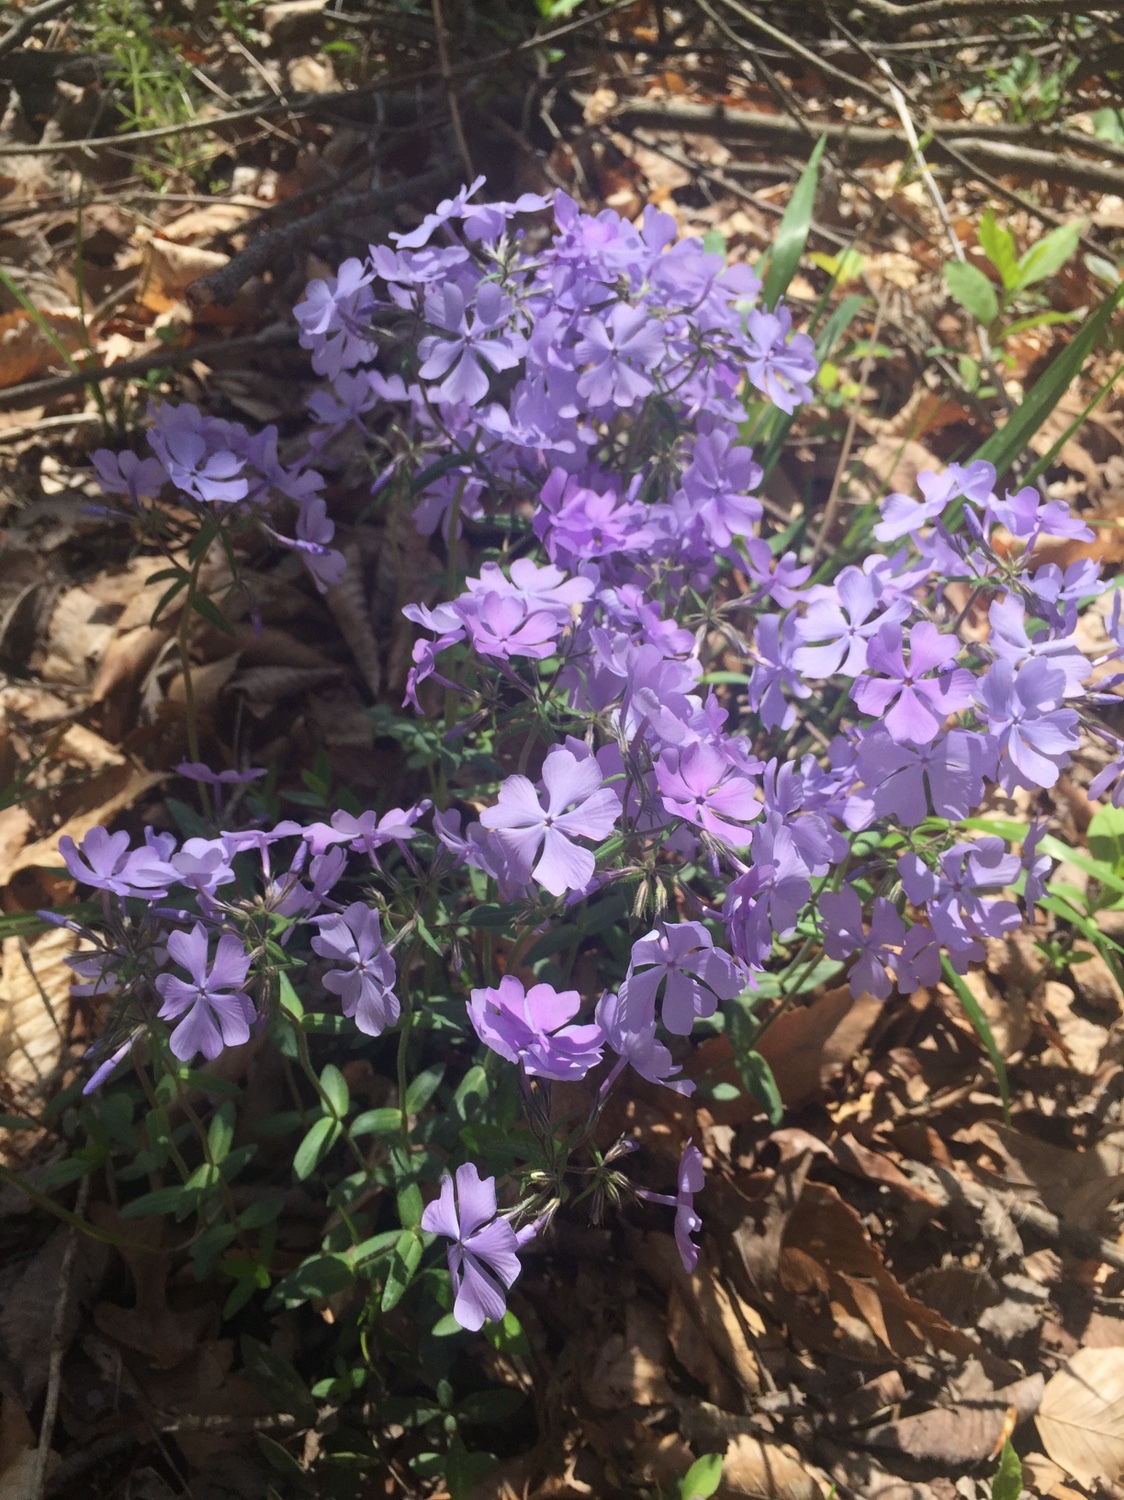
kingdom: Plantae
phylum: Tracheophyta
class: Magnoliopsida
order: Ericales
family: Polemoniaceae
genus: Phlox
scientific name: Phlox divaricata
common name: Blue phlox
